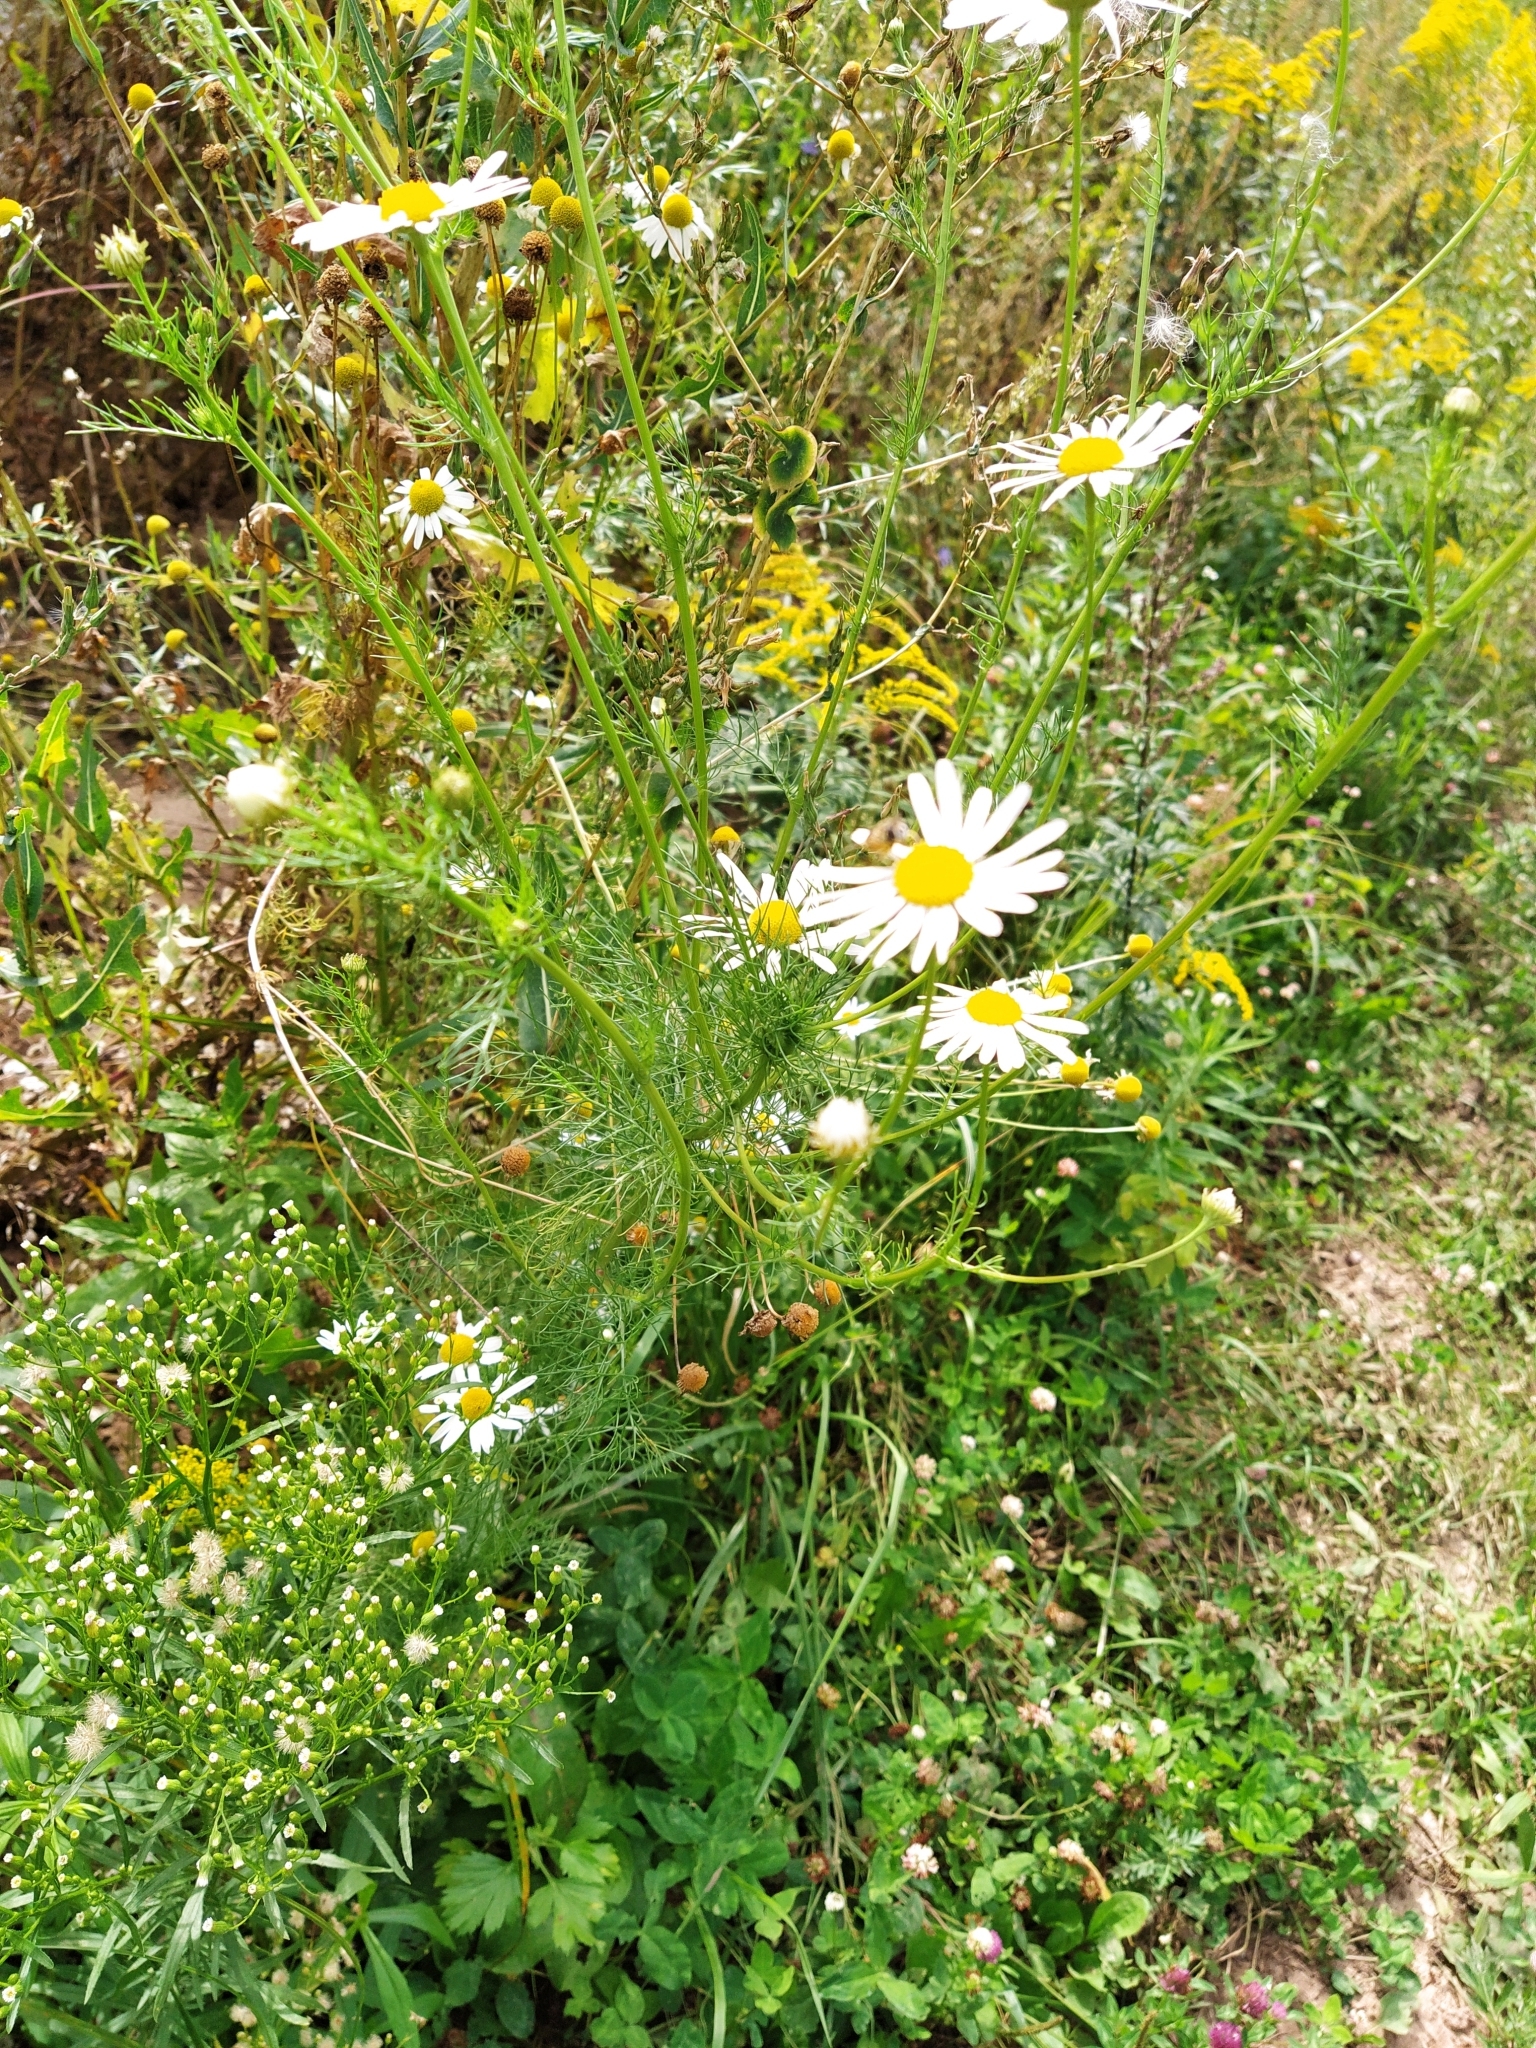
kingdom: Plantae
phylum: Tracheophyta
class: Magnoliopsida
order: Asterales
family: Asteraceae
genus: Tripleurospermum
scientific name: Tripleurospermum inodorum
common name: Scentless mayweed
